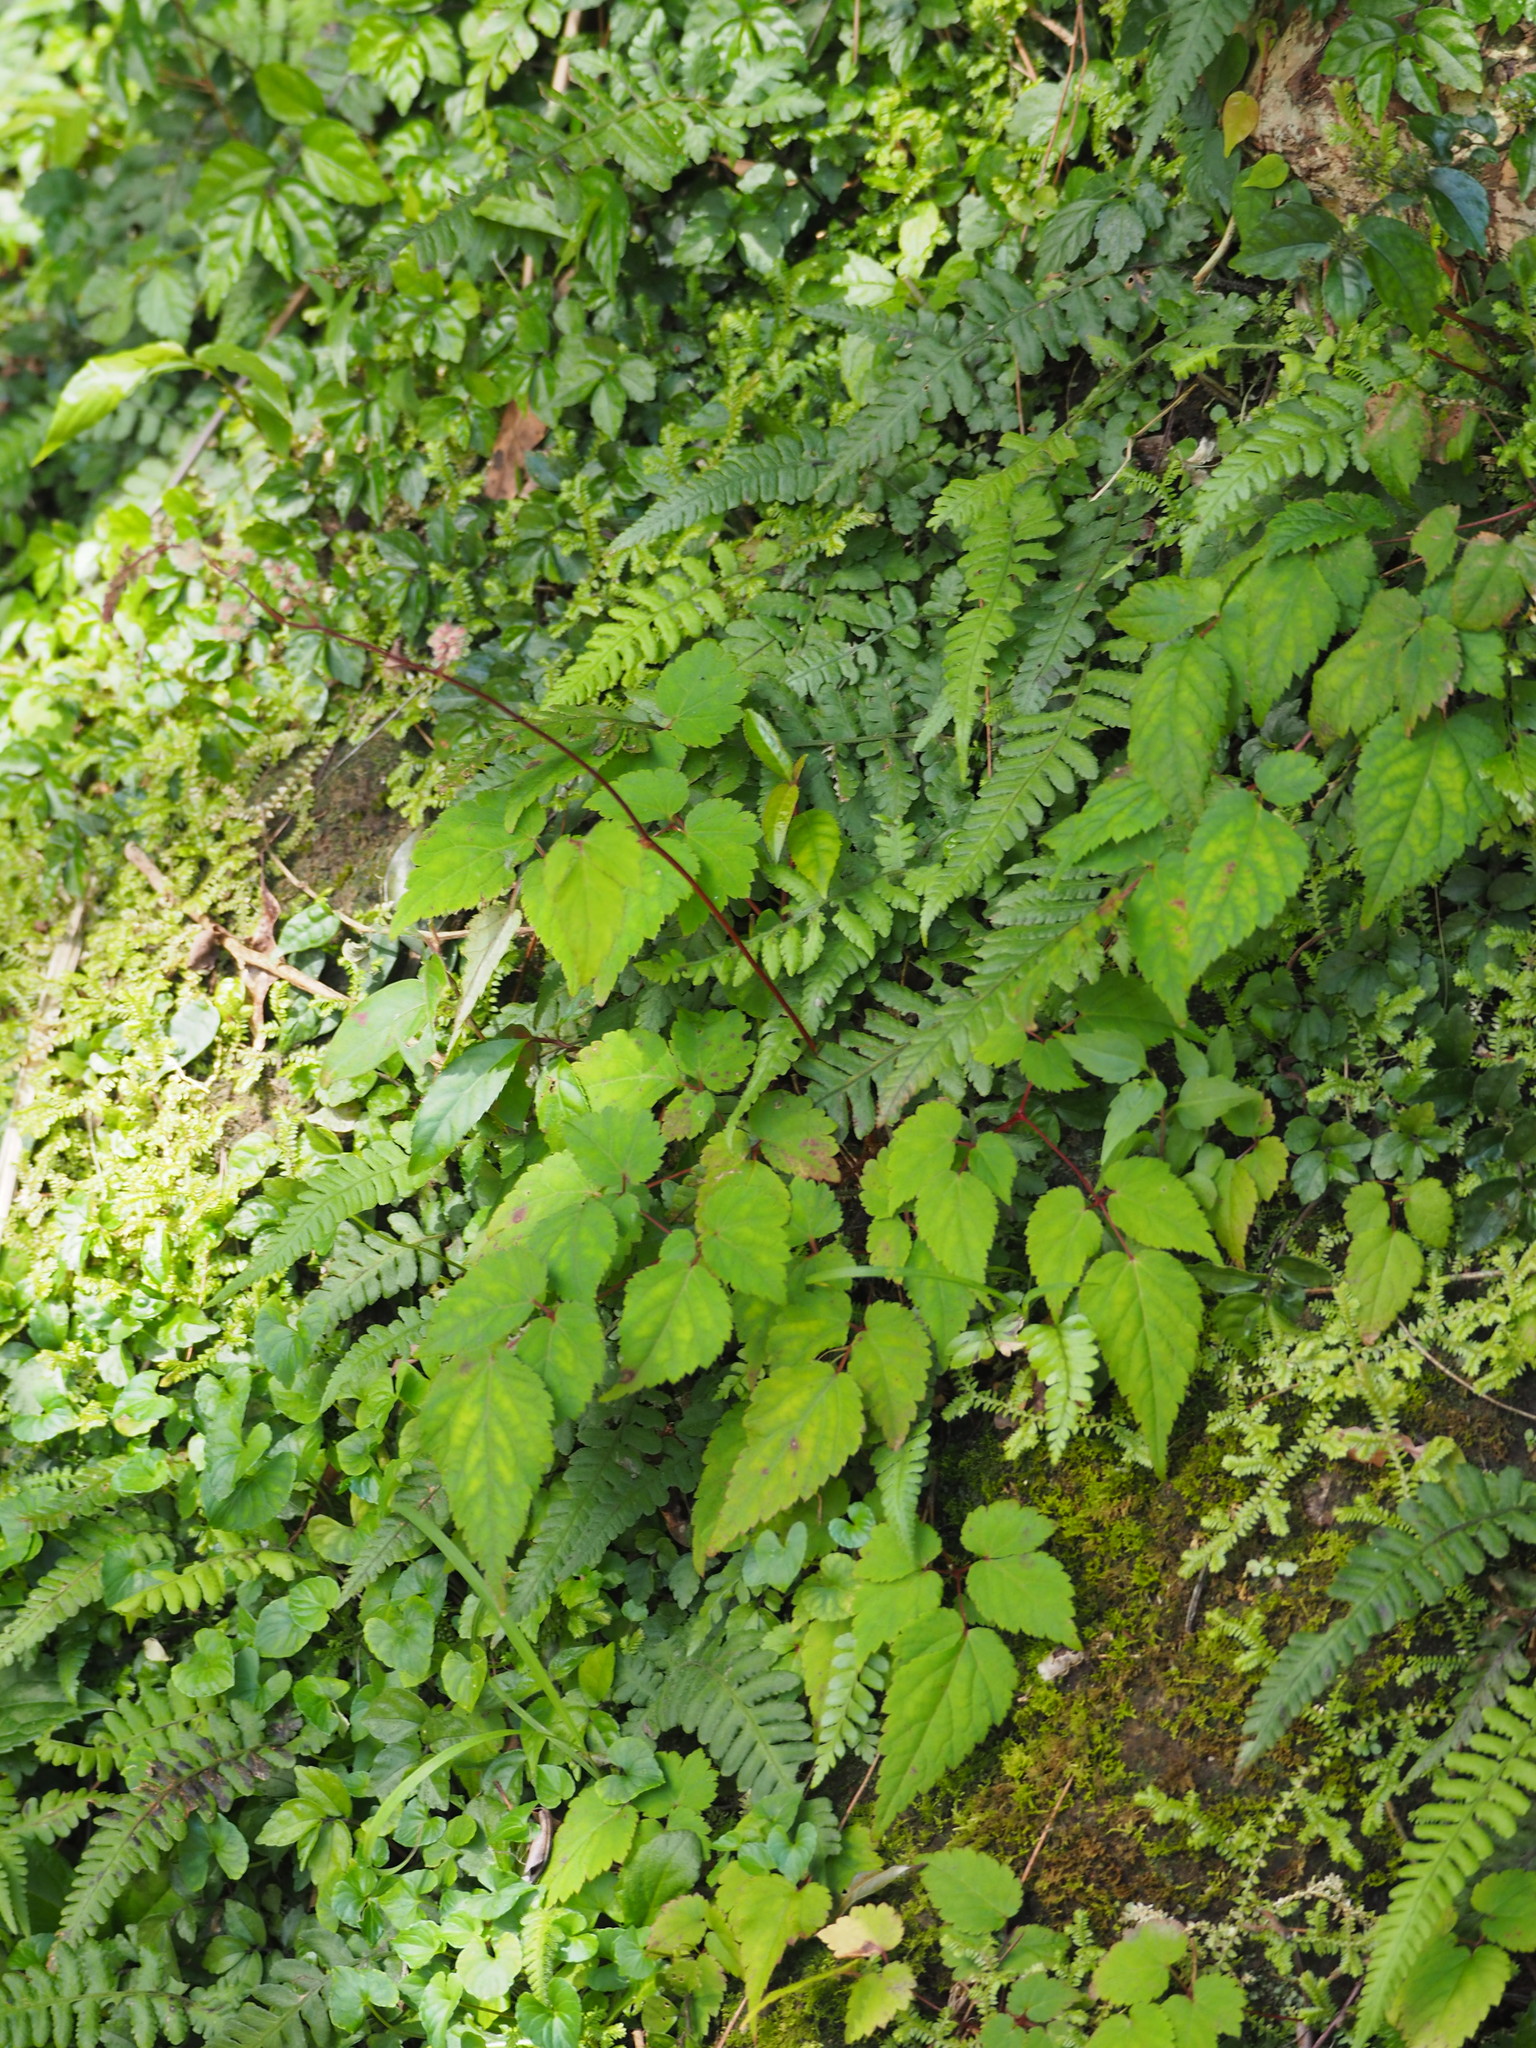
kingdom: Plantae
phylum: Tracheophyta
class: Magnoliopsida
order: Saxifragales
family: Saxifragaceae
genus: Astilbe
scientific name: Astilbe longicarpa
